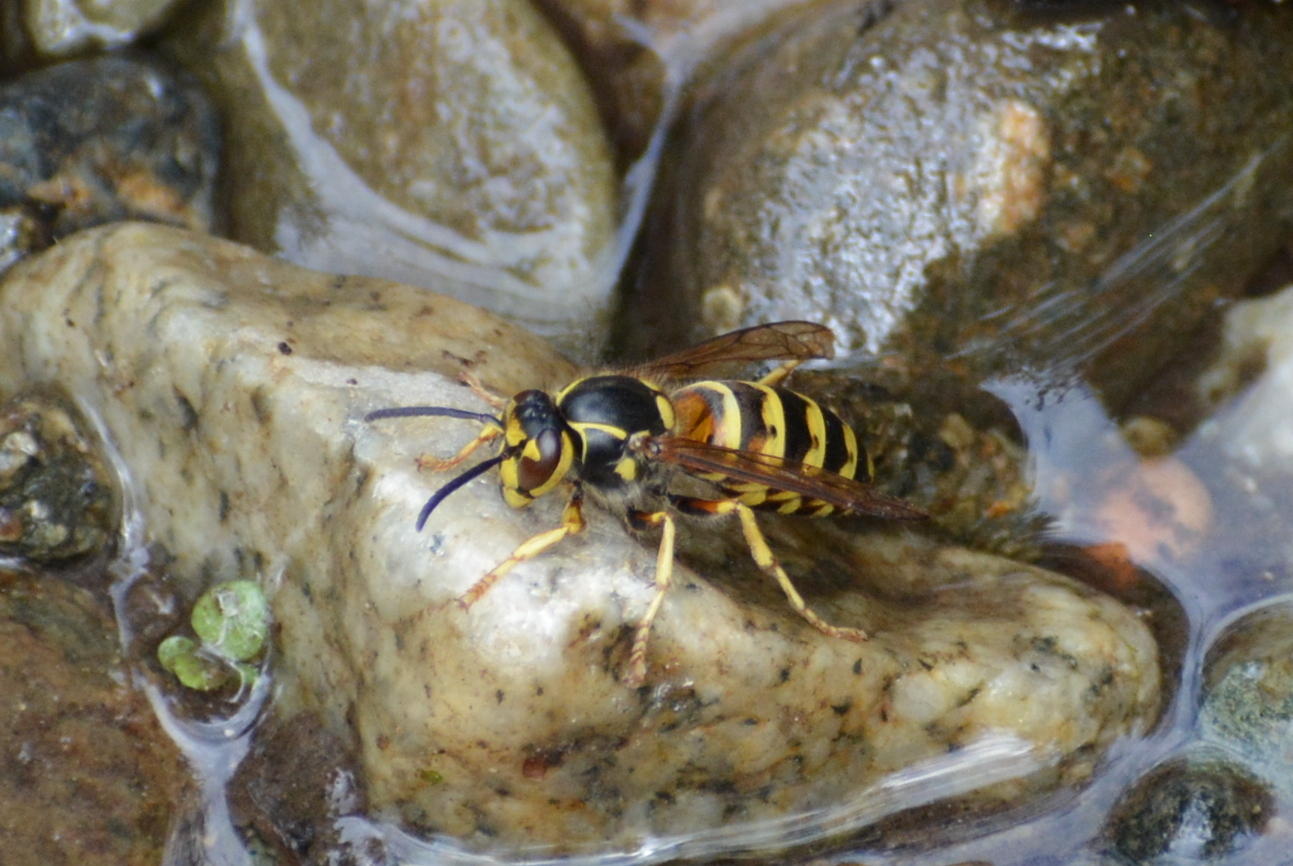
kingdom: Animalia
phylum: Arthropoda
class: Insecta
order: Hymenoptera
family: Vespidae
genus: Dolichovespula
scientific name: Dolichovespula norwegica
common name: Norwegian wasp
